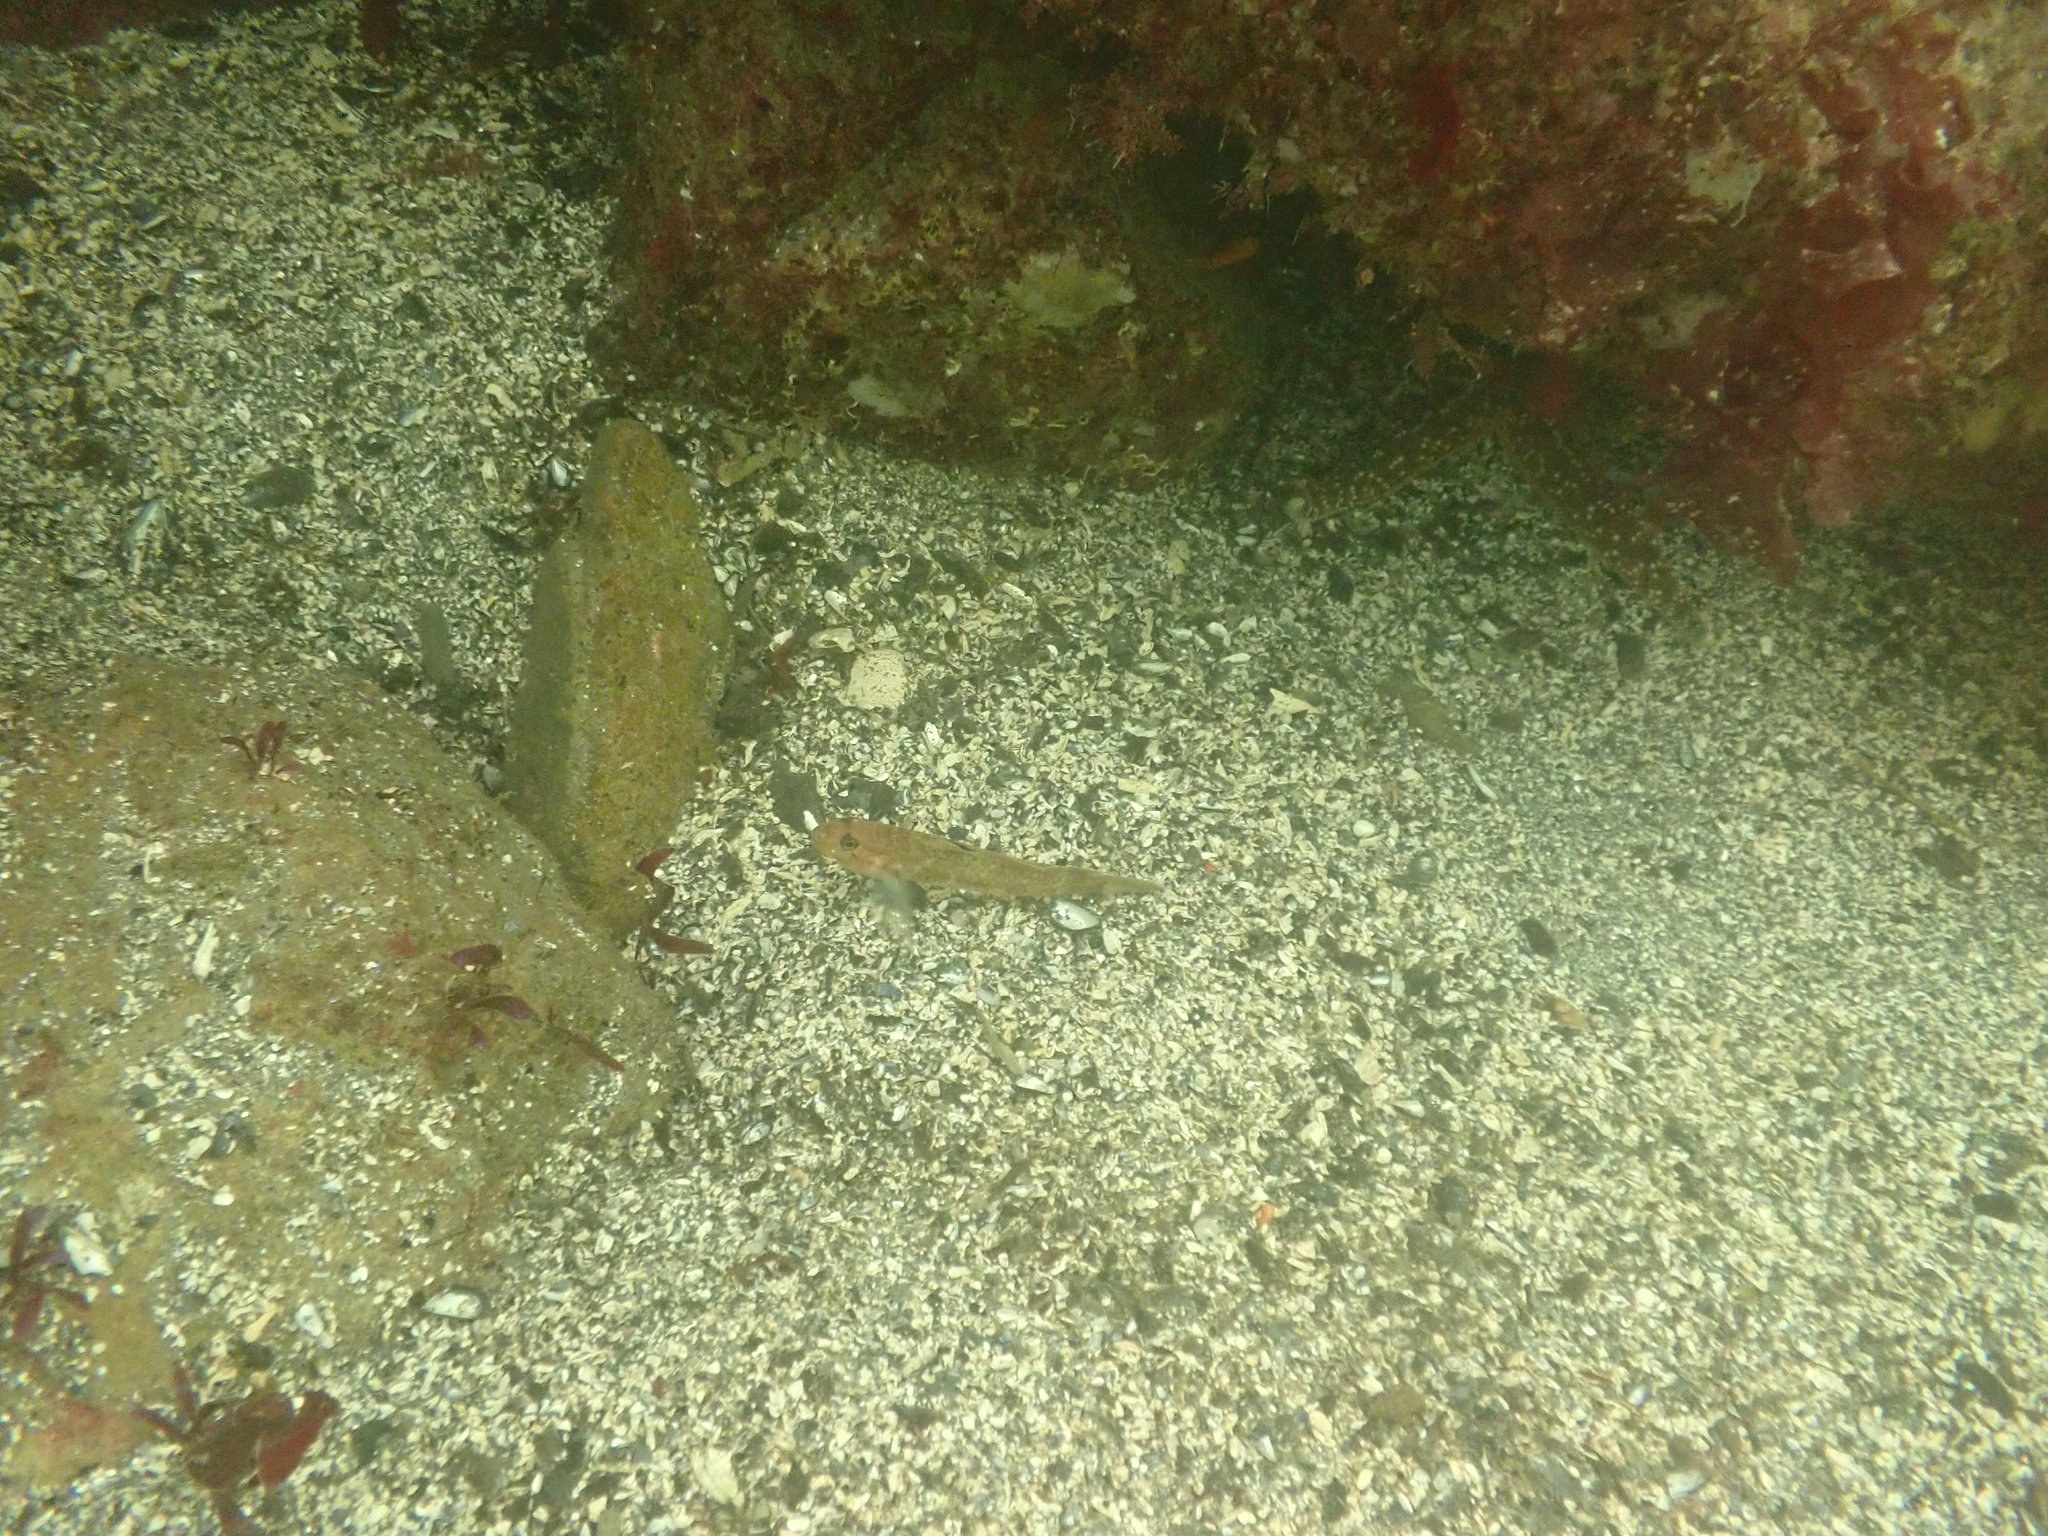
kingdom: Animalia
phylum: Chordata
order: Perciformes
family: Gobiidae
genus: Rhinogobiops
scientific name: Rhinogobiops nicholsii
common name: Blackeye goby
